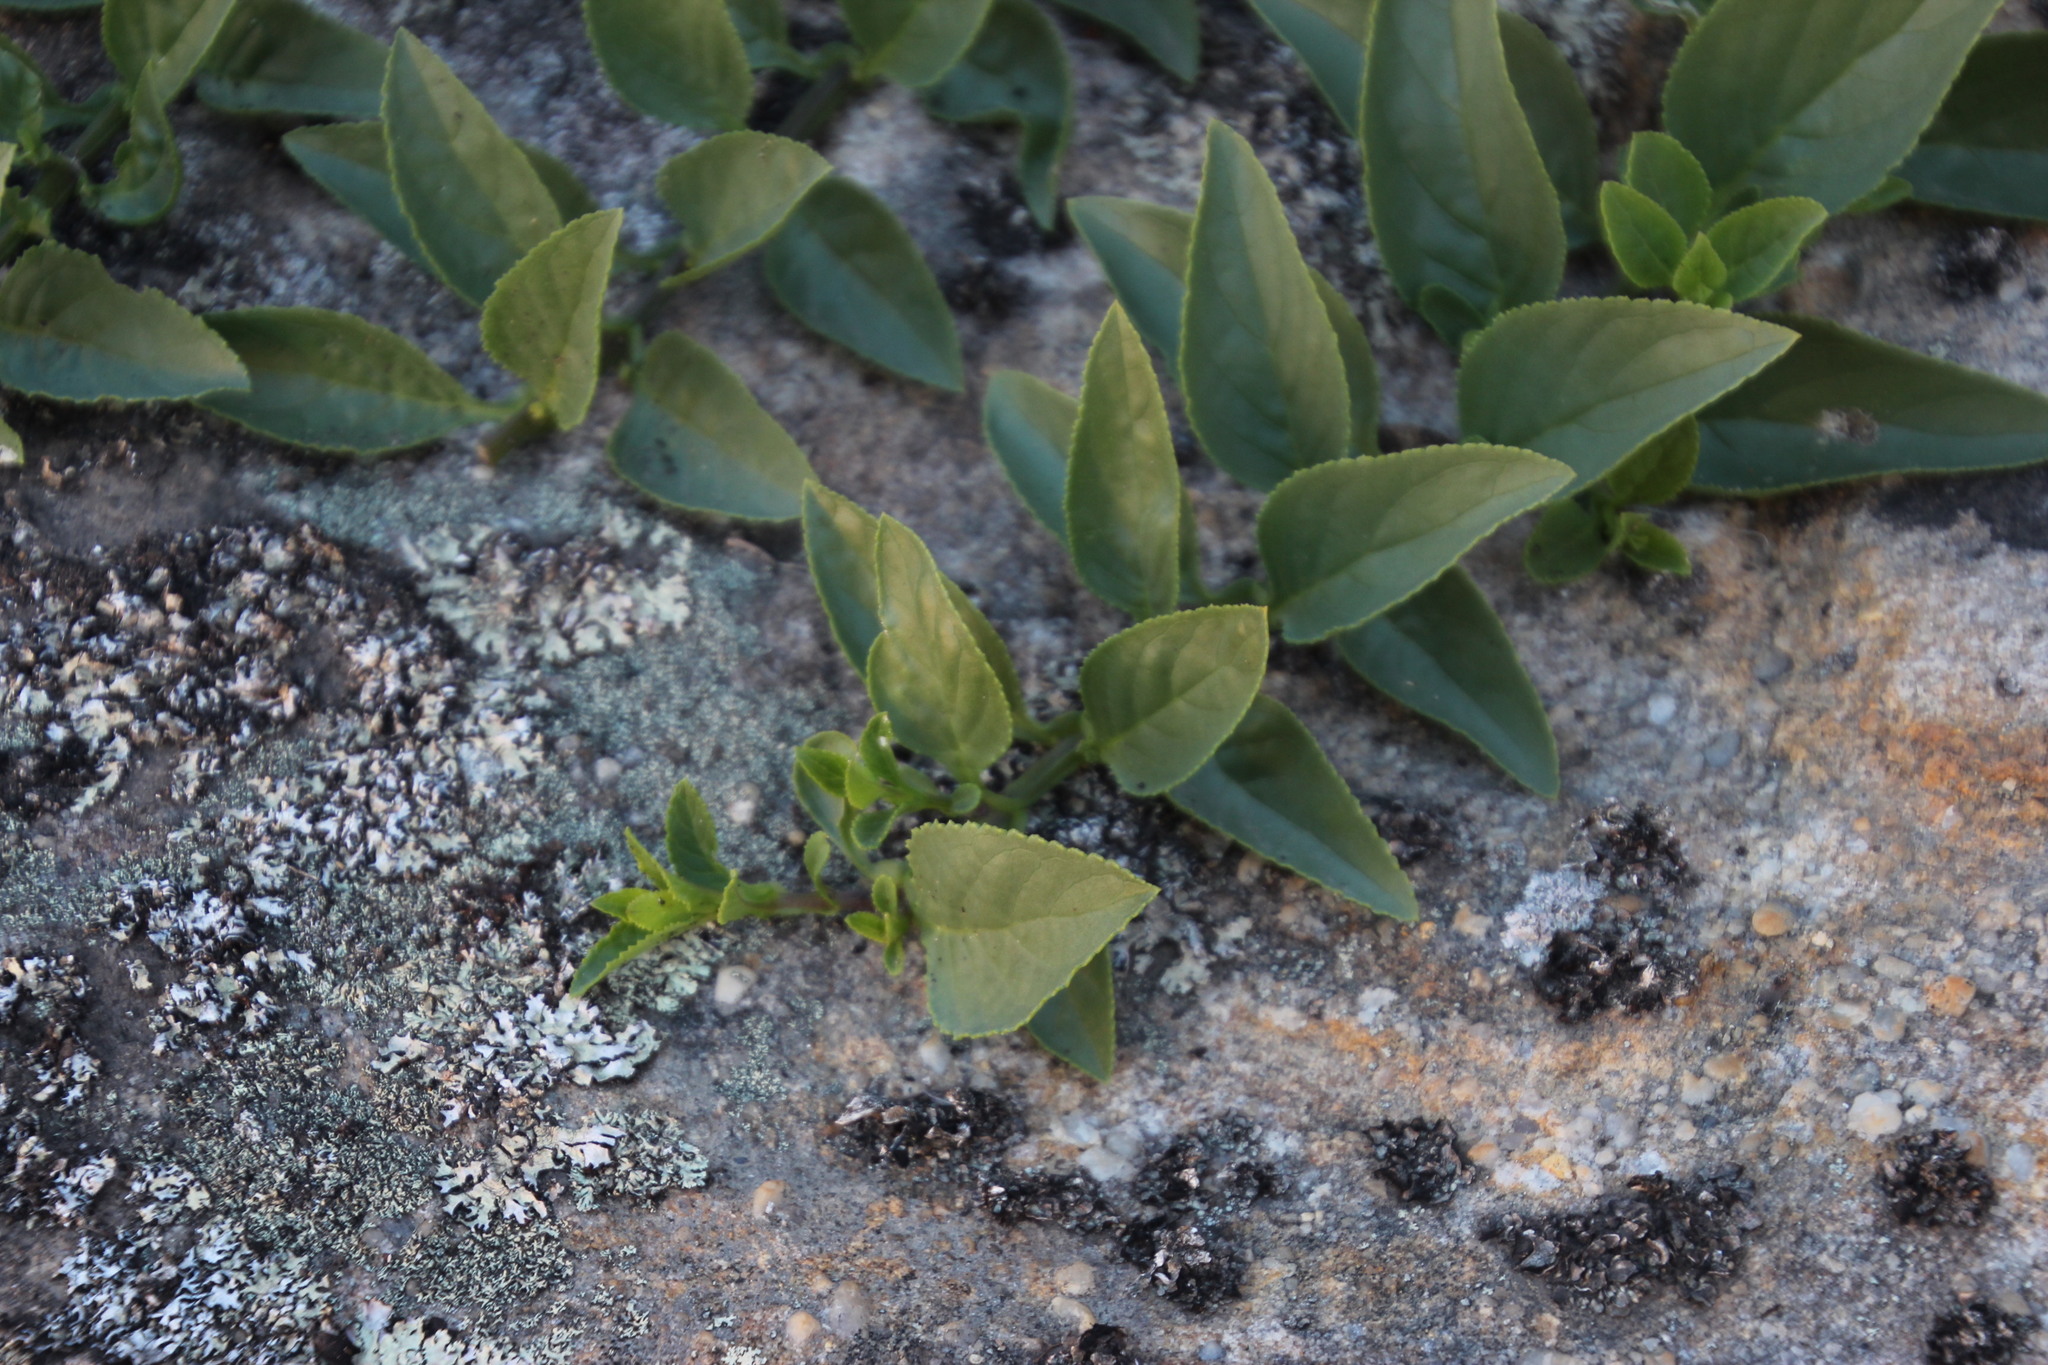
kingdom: Plantae
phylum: Tracheophyta
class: Magnoliopsida
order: Lamiales
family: Scrophulariaceae
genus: Teedia
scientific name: Teedia lucida
